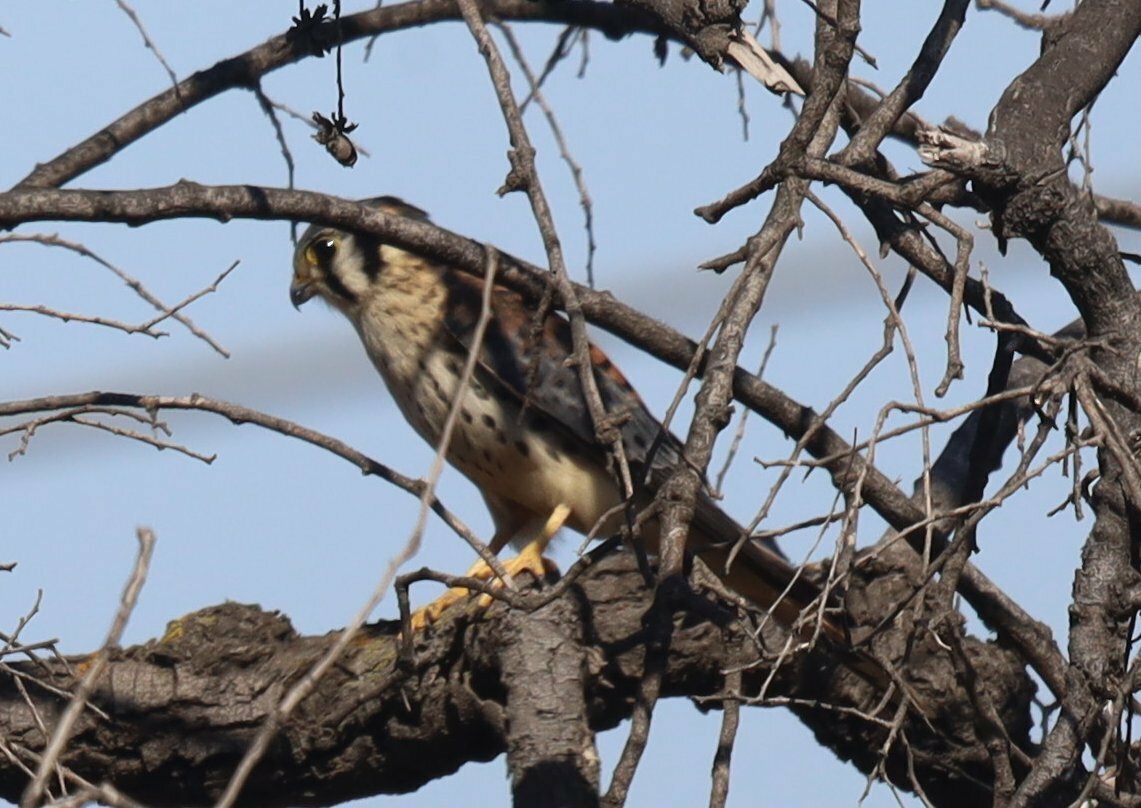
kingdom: Animalia
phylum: Chordata
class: Aves
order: Falconiformes
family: Falconidae
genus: Falco
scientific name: Falco sparverius
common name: American kestrel
